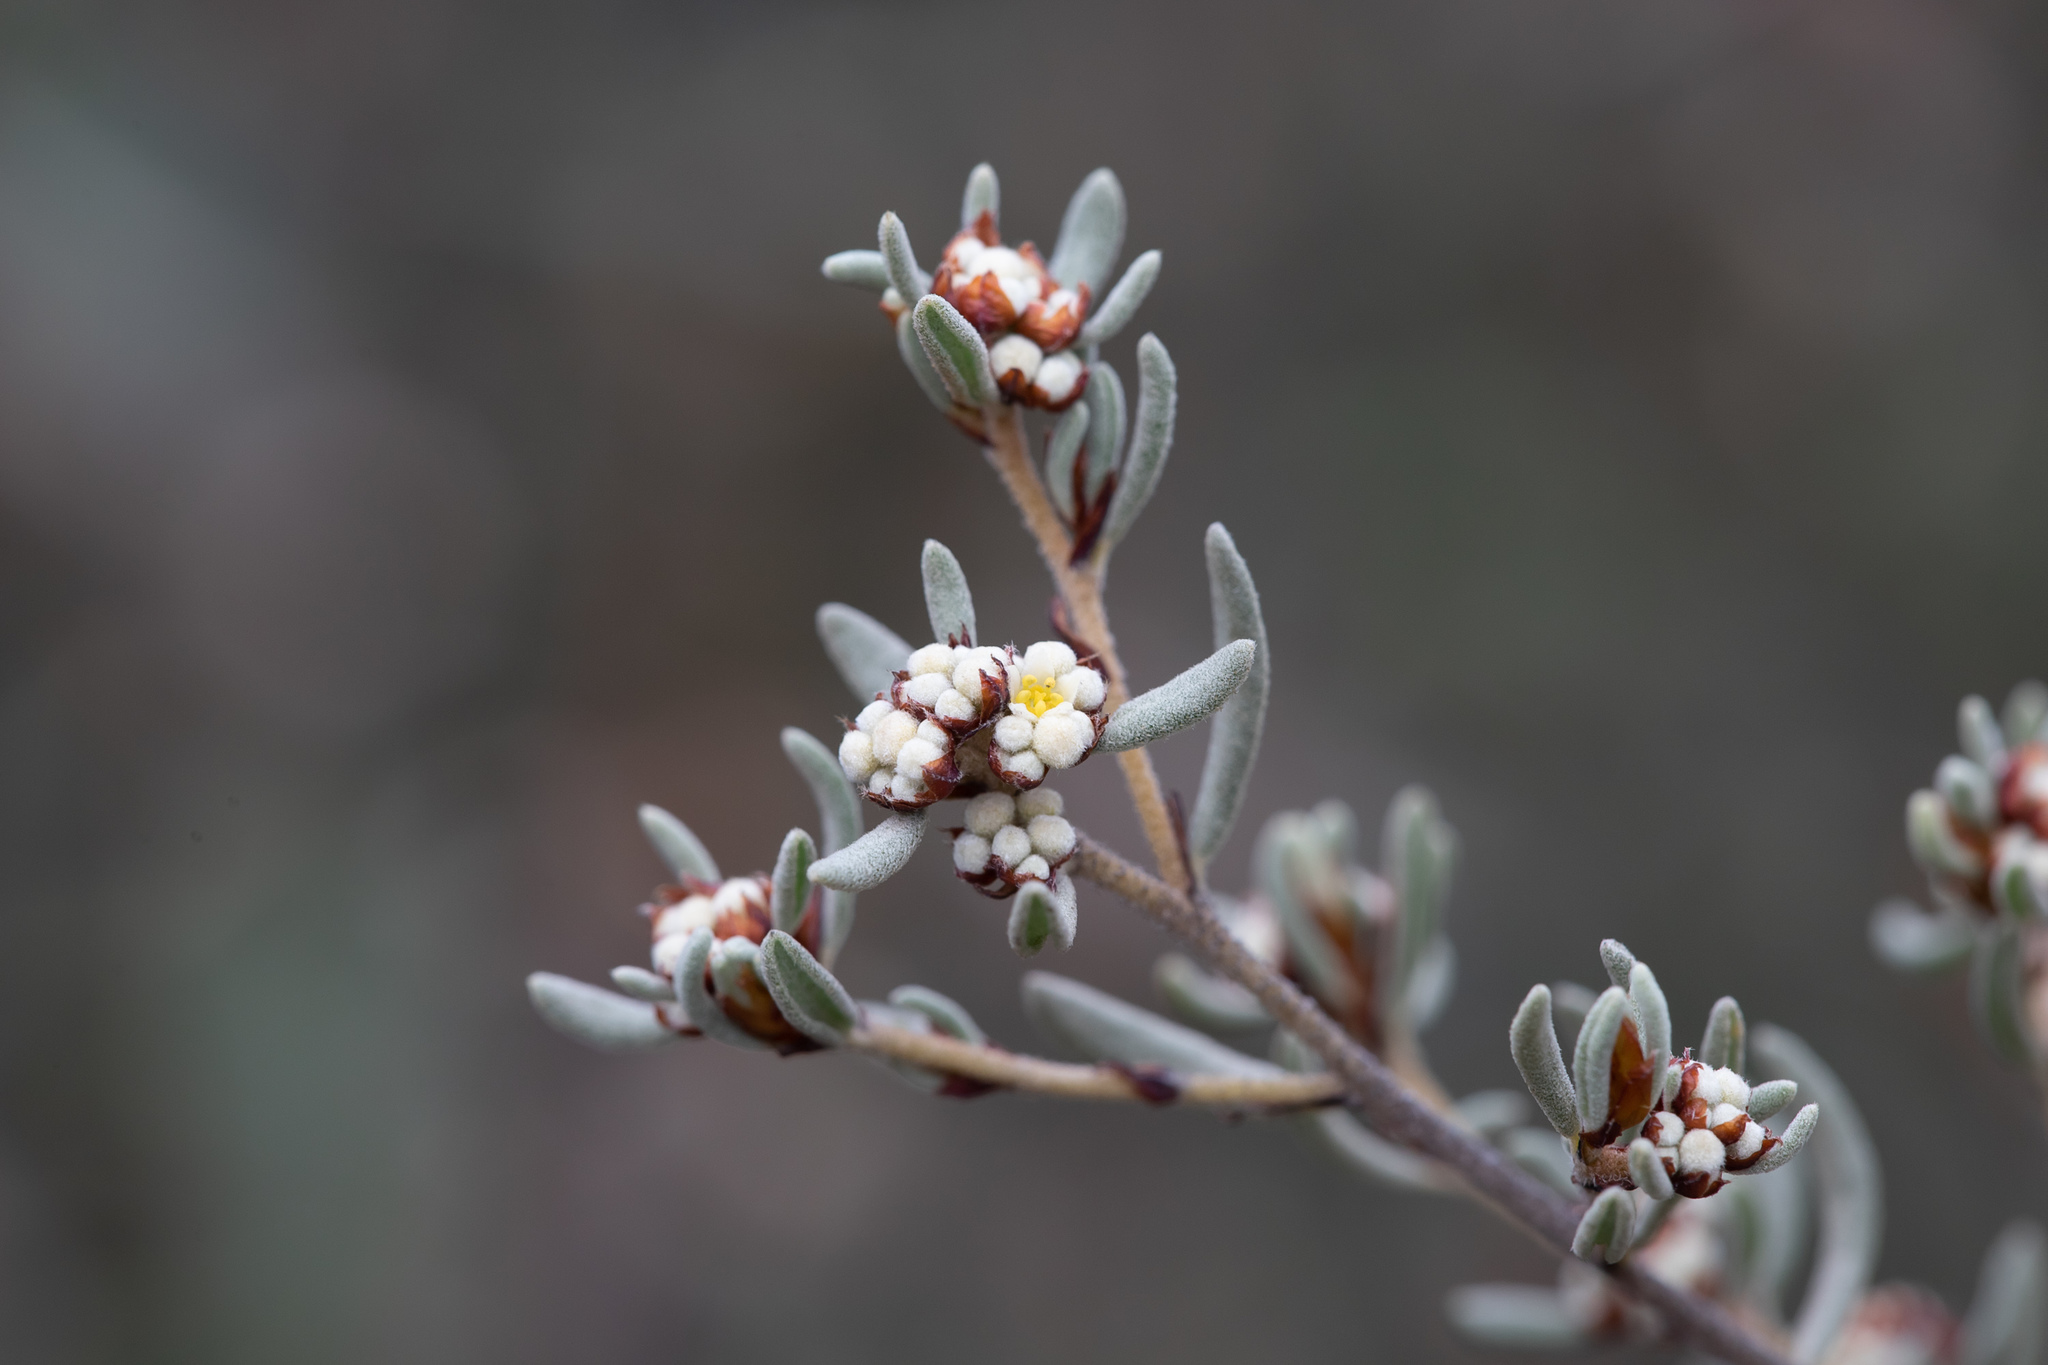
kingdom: Plantae
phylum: Tracheophyta
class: Magnoliopsida
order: Rosales
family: Rhamnaceae
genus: Spyridium
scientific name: Spyridium subochreatum
